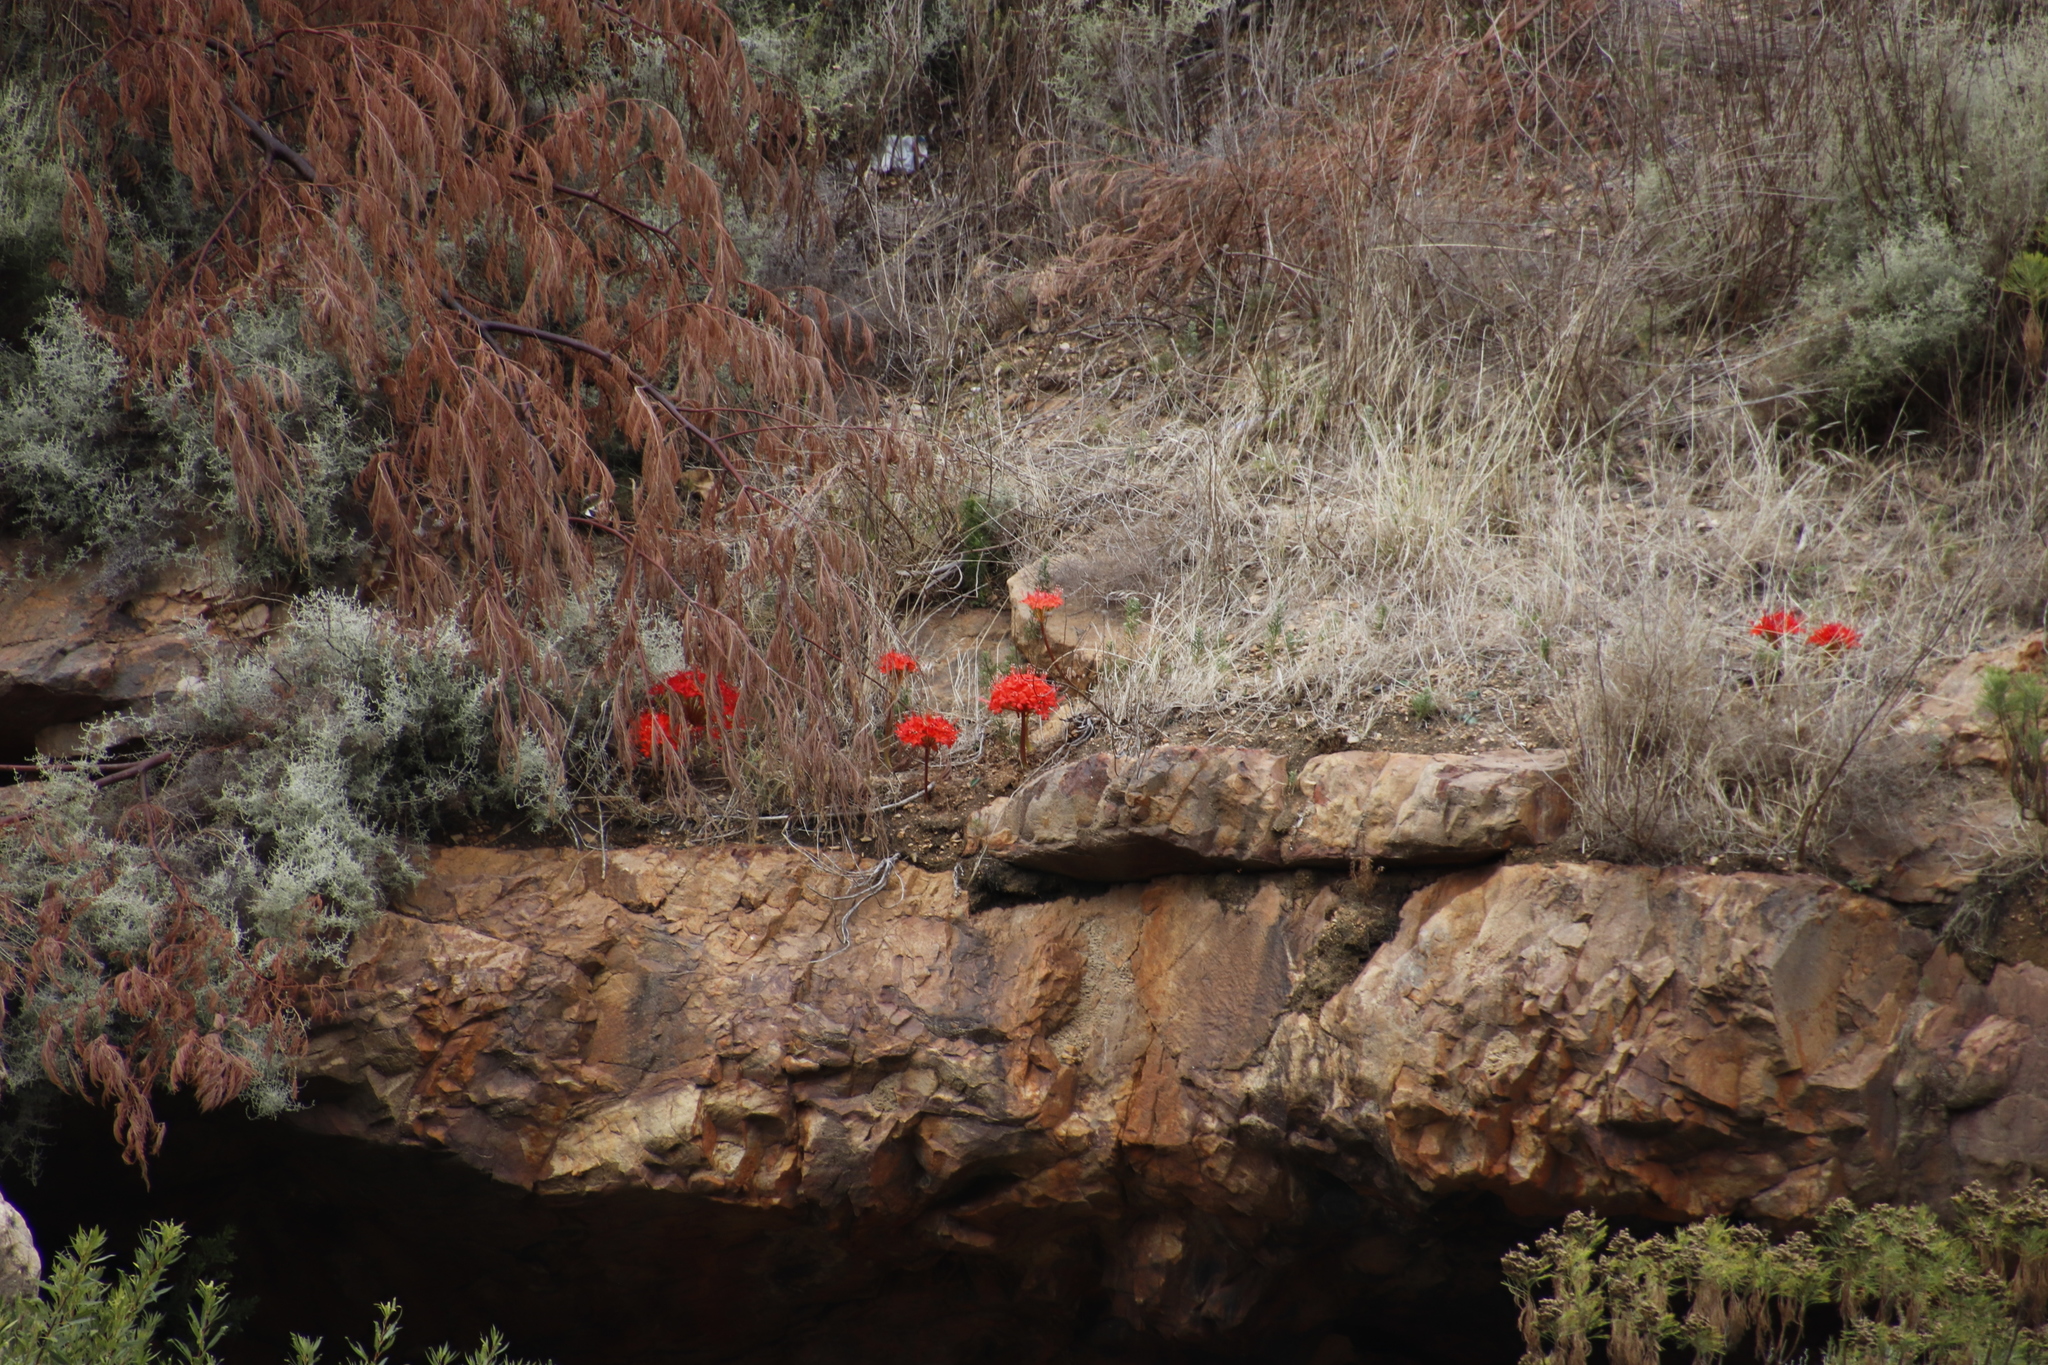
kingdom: Plantae
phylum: Tracheophyta
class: Liliopsida
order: Asparagales
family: Amaryllidaceae
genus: Brunsvigia
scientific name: Brunsvigia marginata
